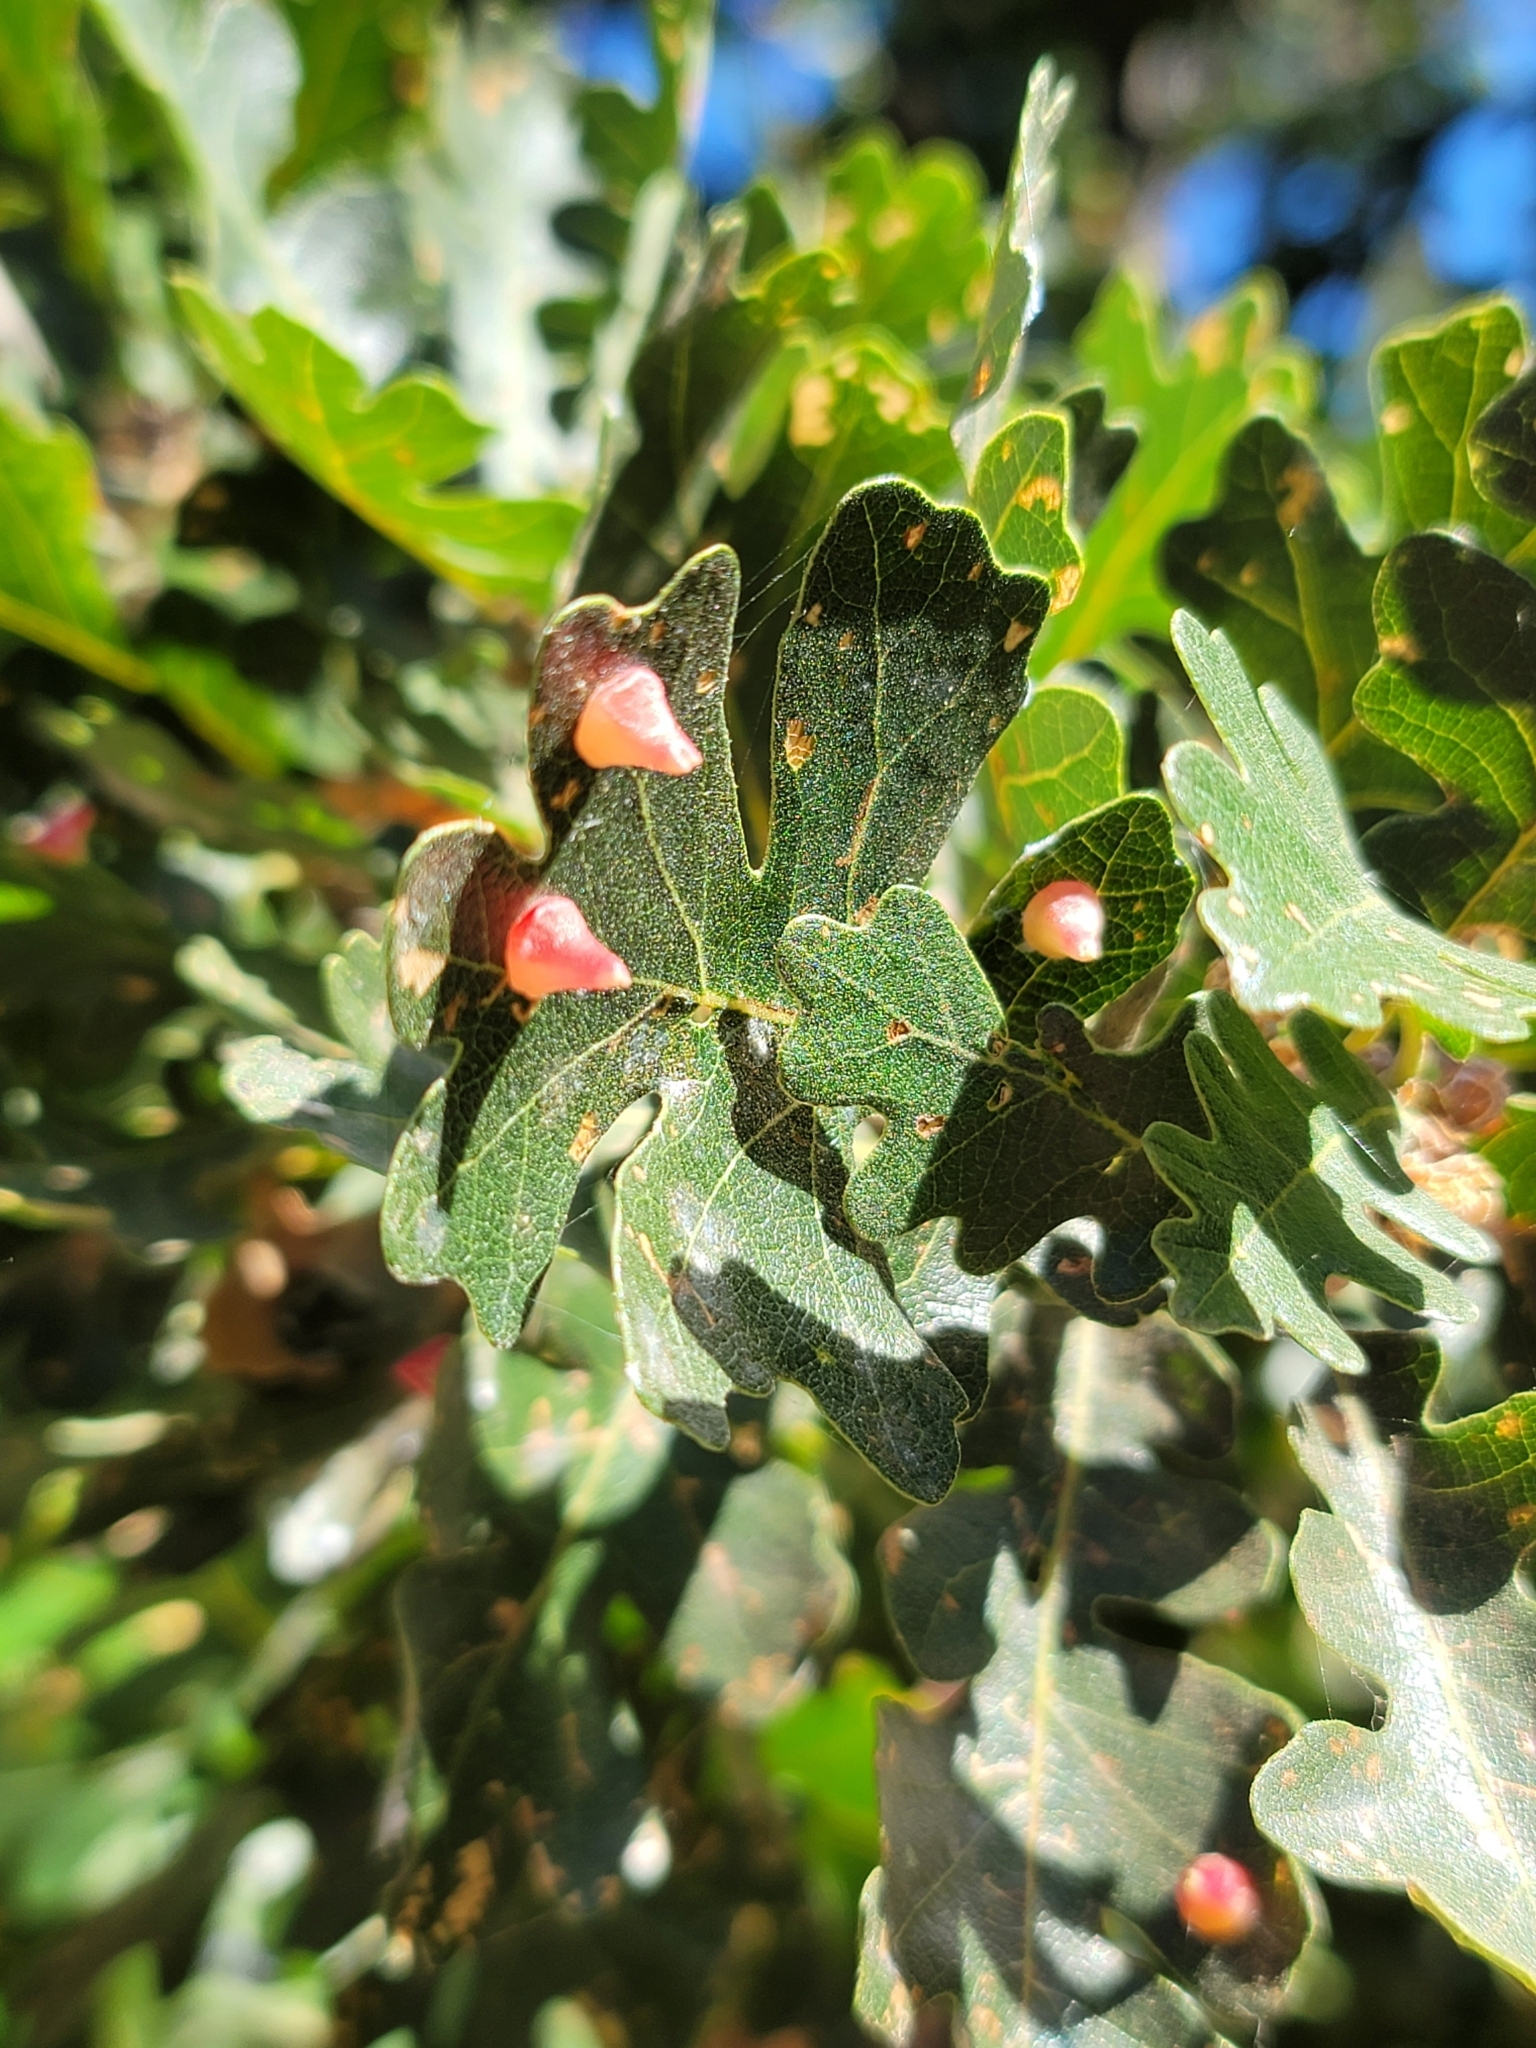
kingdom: Animalia
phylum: Arthropoda
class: Insecta
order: Hymenoptera
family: Cynipidae
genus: Andricus
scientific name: Andricus
